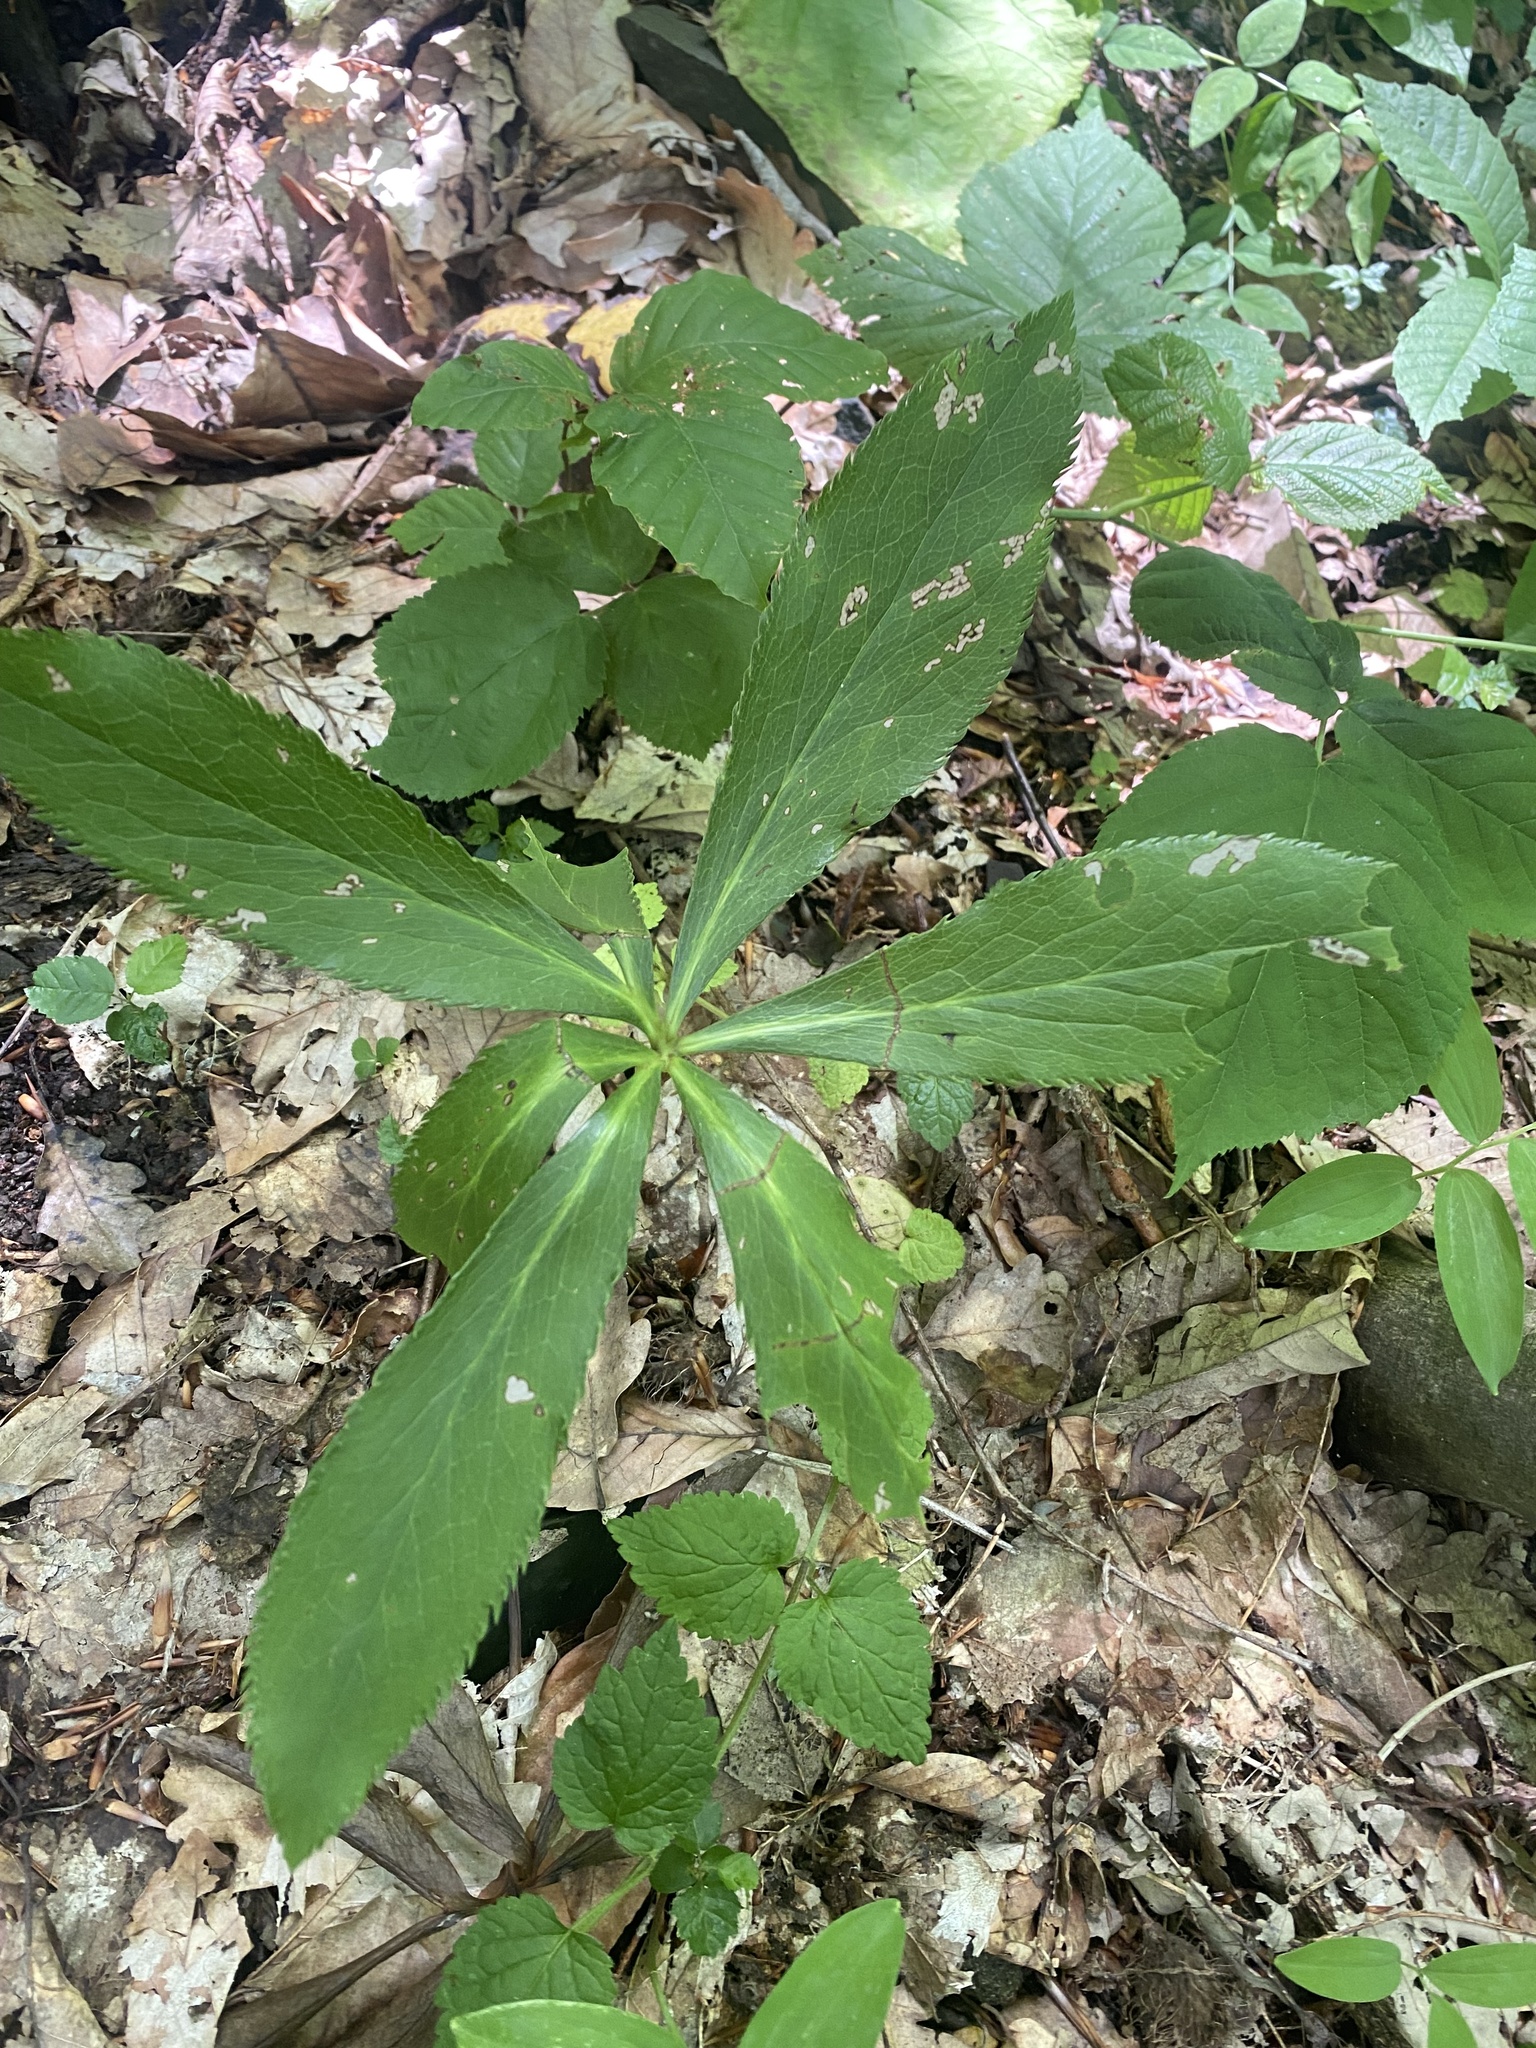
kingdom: Plantae
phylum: Tracheophyta
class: Magnoliopsida
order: Ranunculales
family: Ranunculaceae
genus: Helleborus
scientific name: Helleborus orientalis
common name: Lenten-rose
